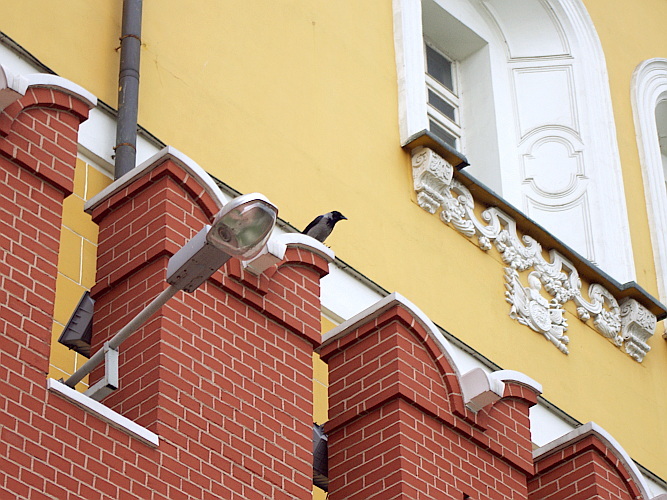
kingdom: Animalia
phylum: Chordata
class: Aves
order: Passeriformes
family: Corvidae
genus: Corvus
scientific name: Corvus cornix
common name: Hooded crow
